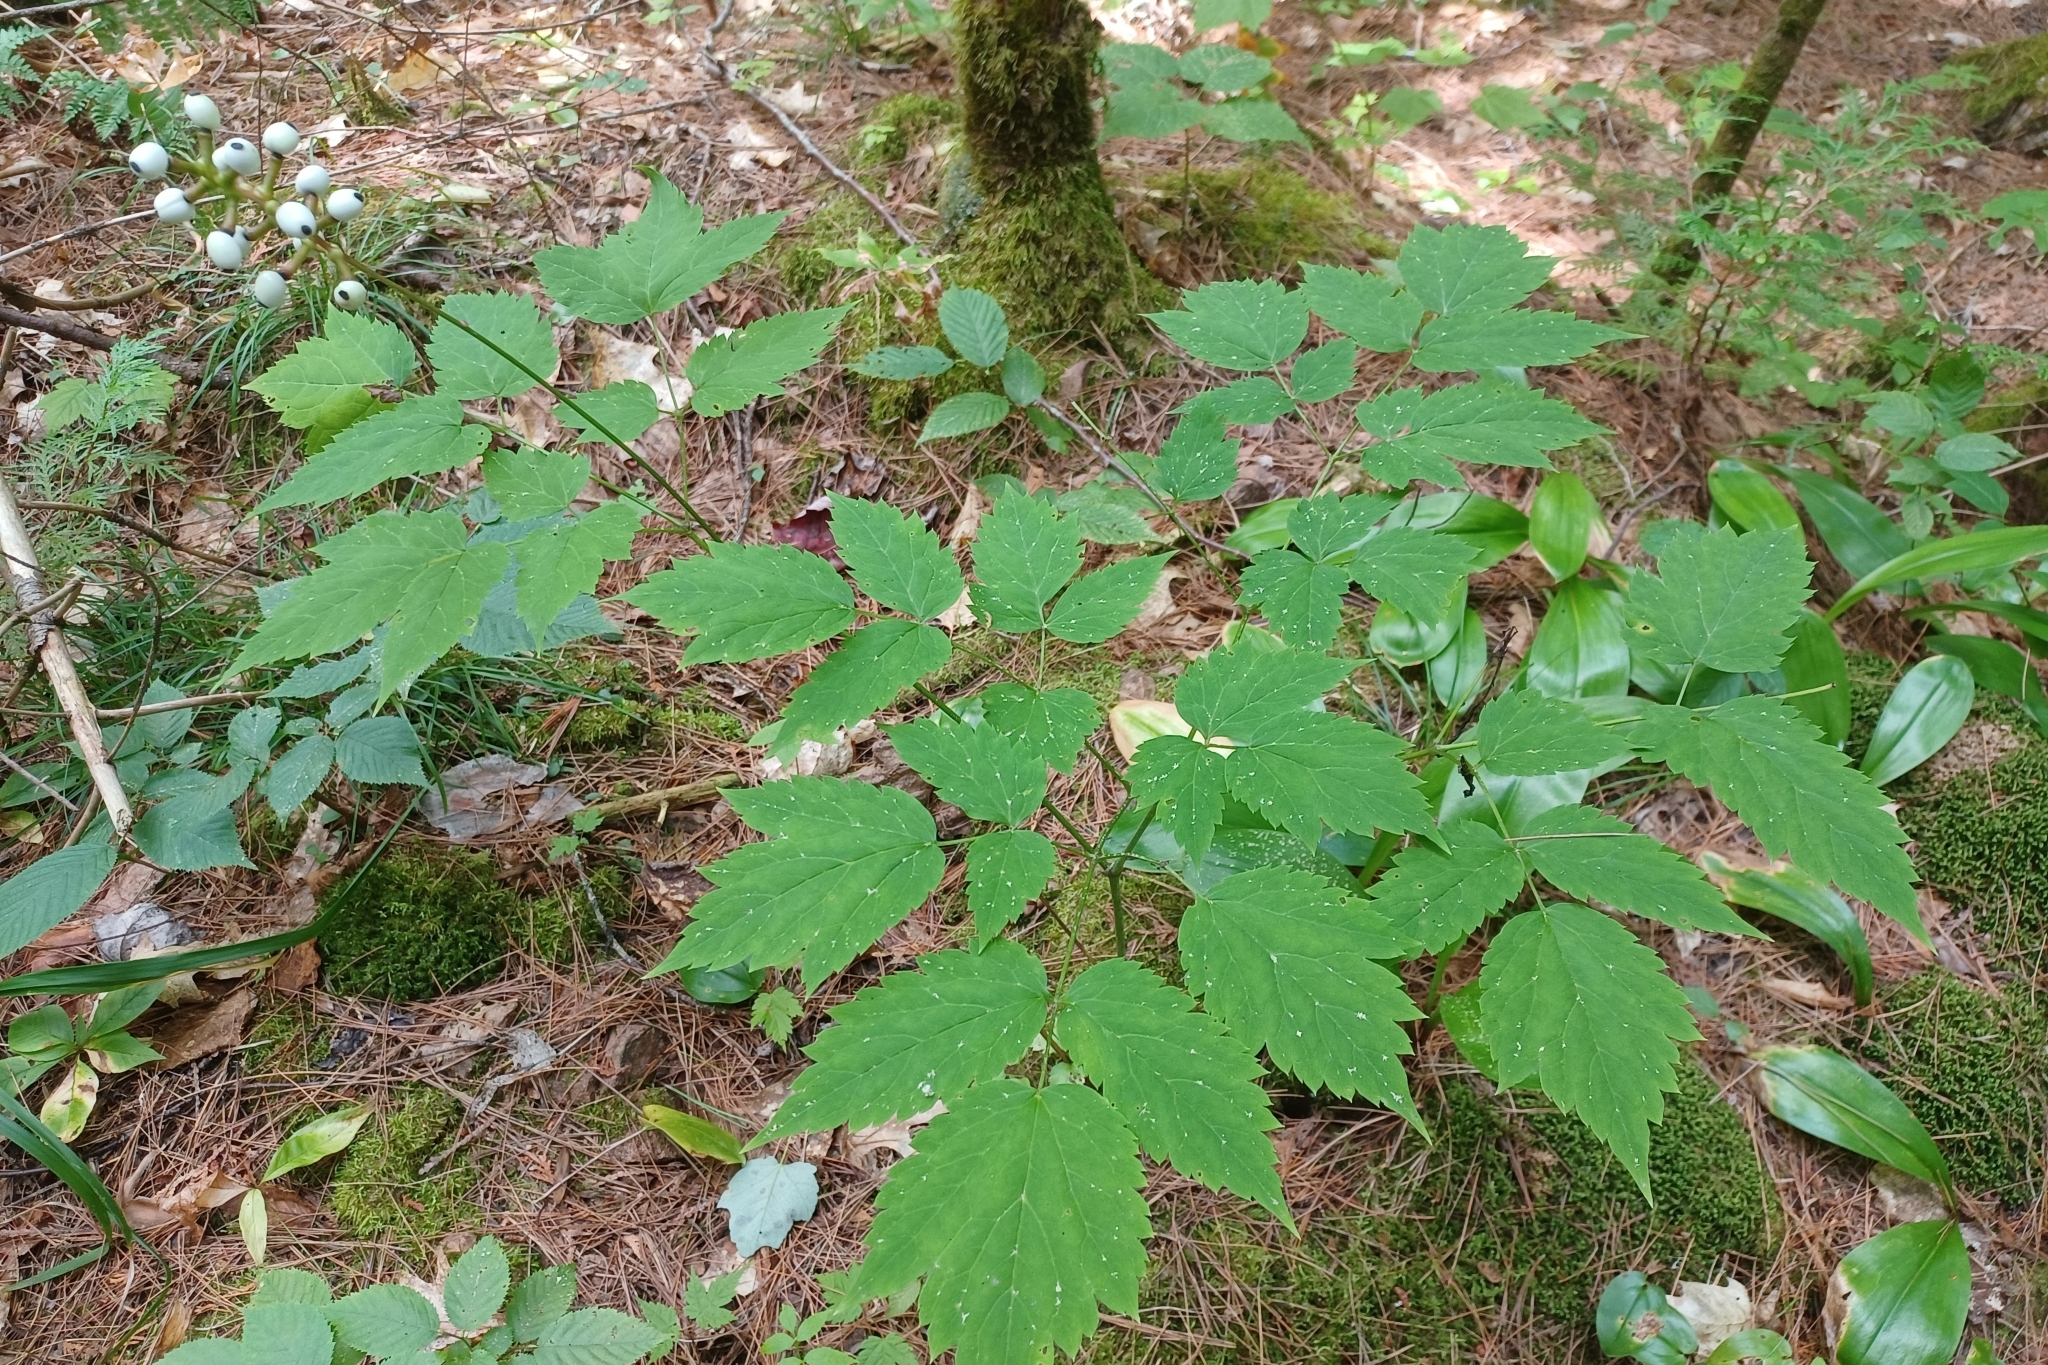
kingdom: Plantae
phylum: Tracheophyta
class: Magnoliopsida
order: Ranunculales
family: Ranunculaceae
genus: Actaea
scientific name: Actaea pachypoda
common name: Doll's-eyes
